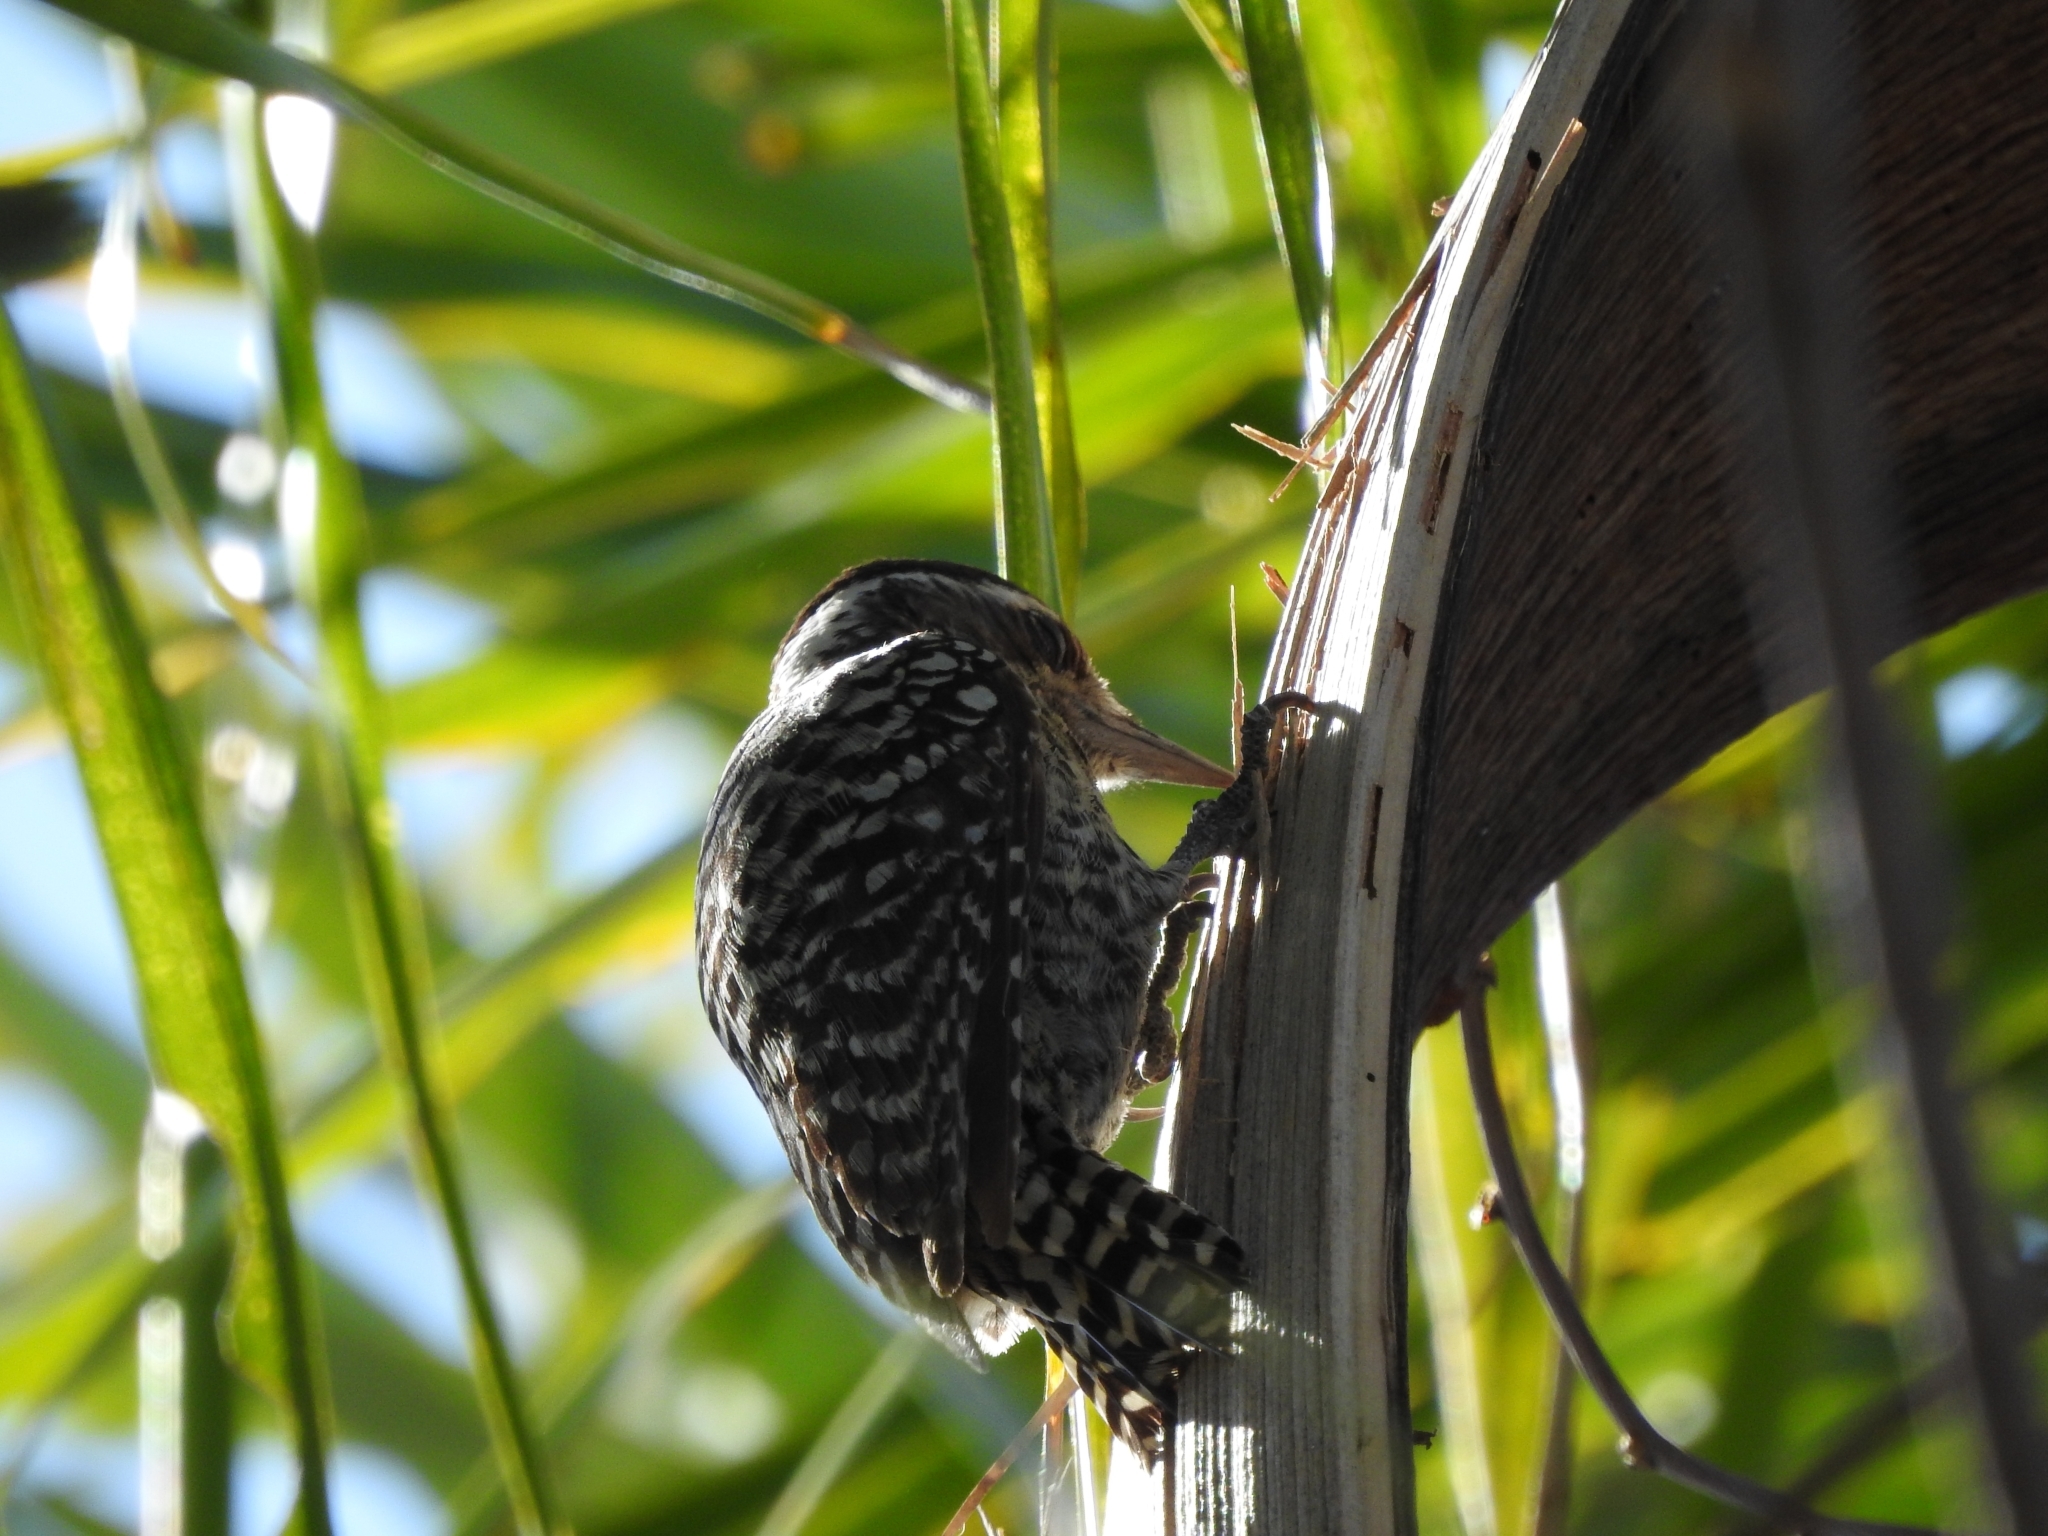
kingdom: Animalia
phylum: Chordata
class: Aves
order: Piciformes
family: Picidae
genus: Veniliornis
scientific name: Veniliornis mixtus
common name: Checkered woodpecker
